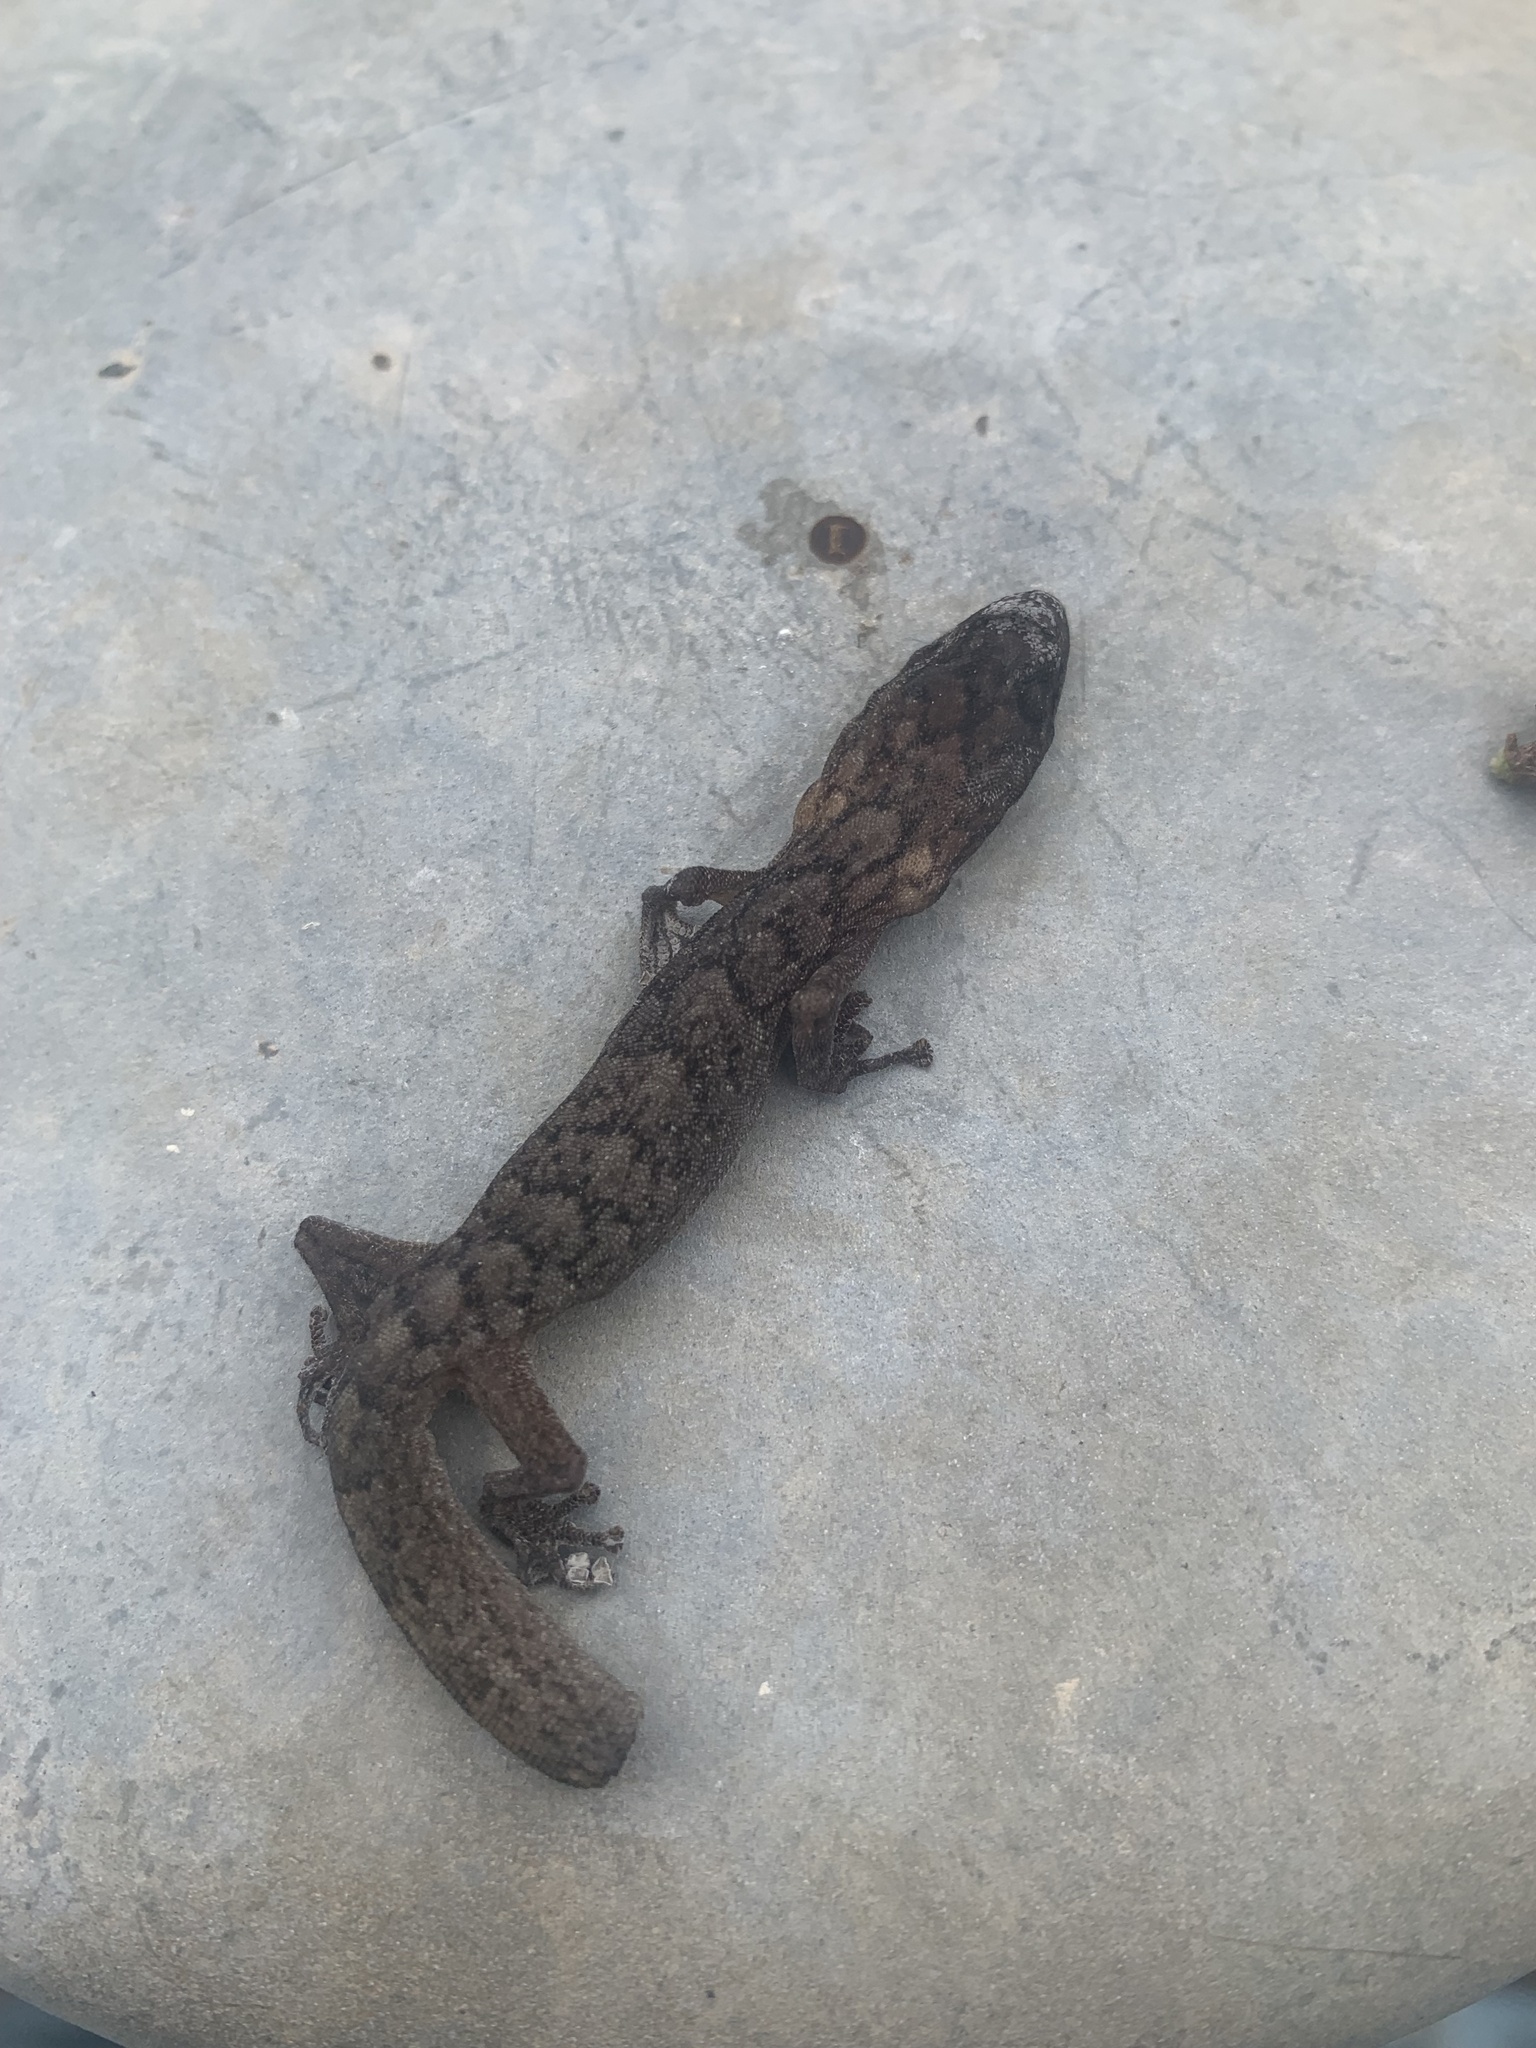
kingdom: Animalia
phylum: Chordata
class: Squamata
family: Gekkonidae
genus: Christinus
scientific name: Christinus marmoratus
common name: Marbled gecko
